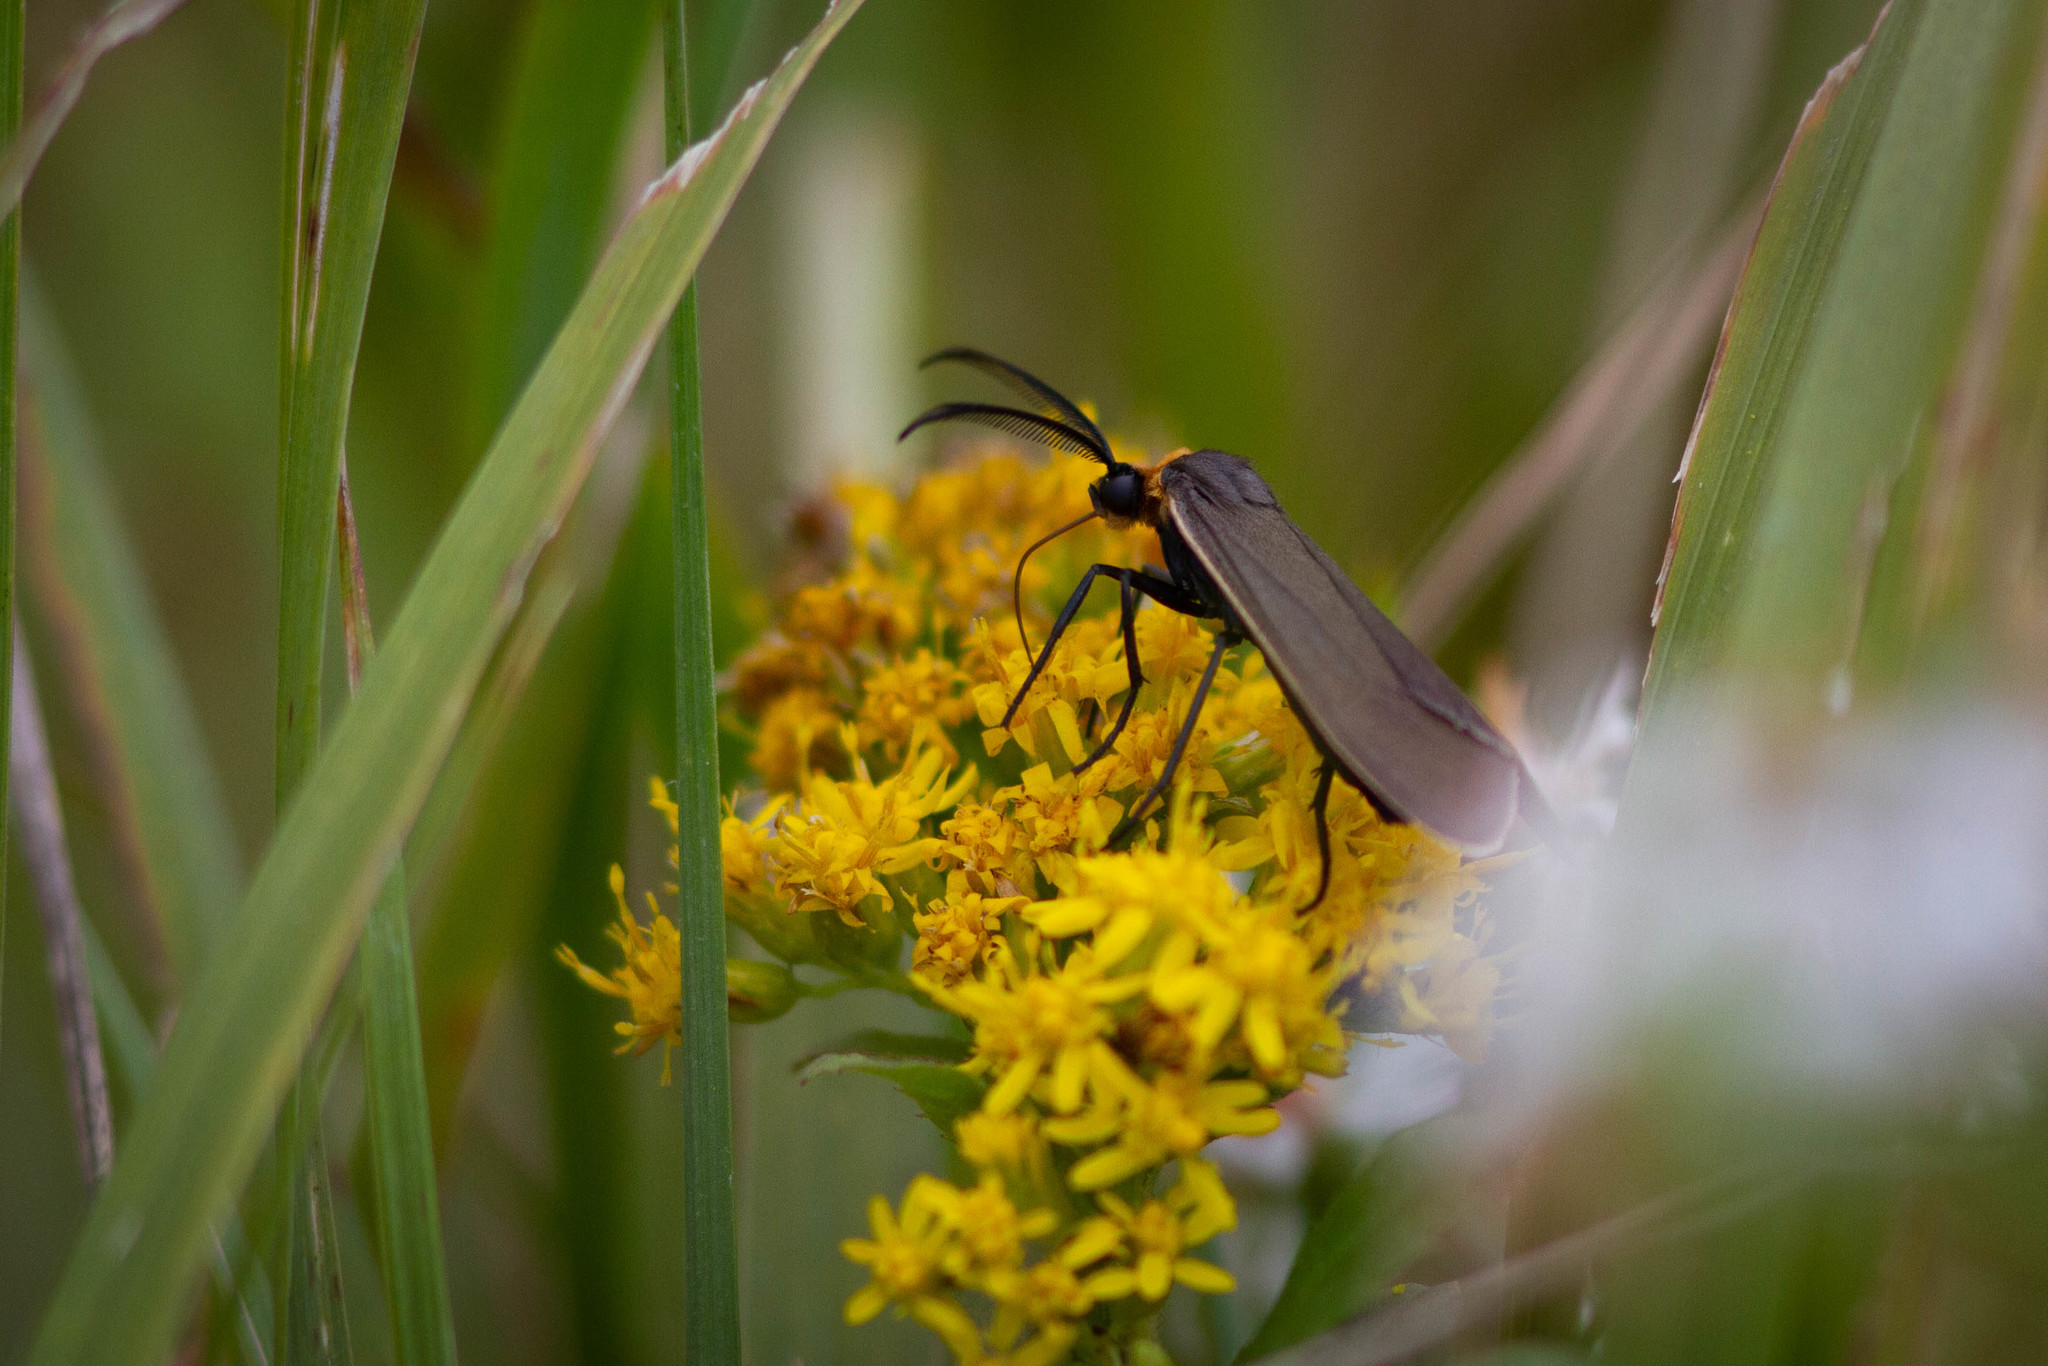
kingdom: Animalia
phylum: Arthropoda
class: Insecta
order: Lepidoptera
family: Erebidae
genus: Cisseps
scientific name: Cisseps fulvicollis
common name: Yellow-collared scape moth
